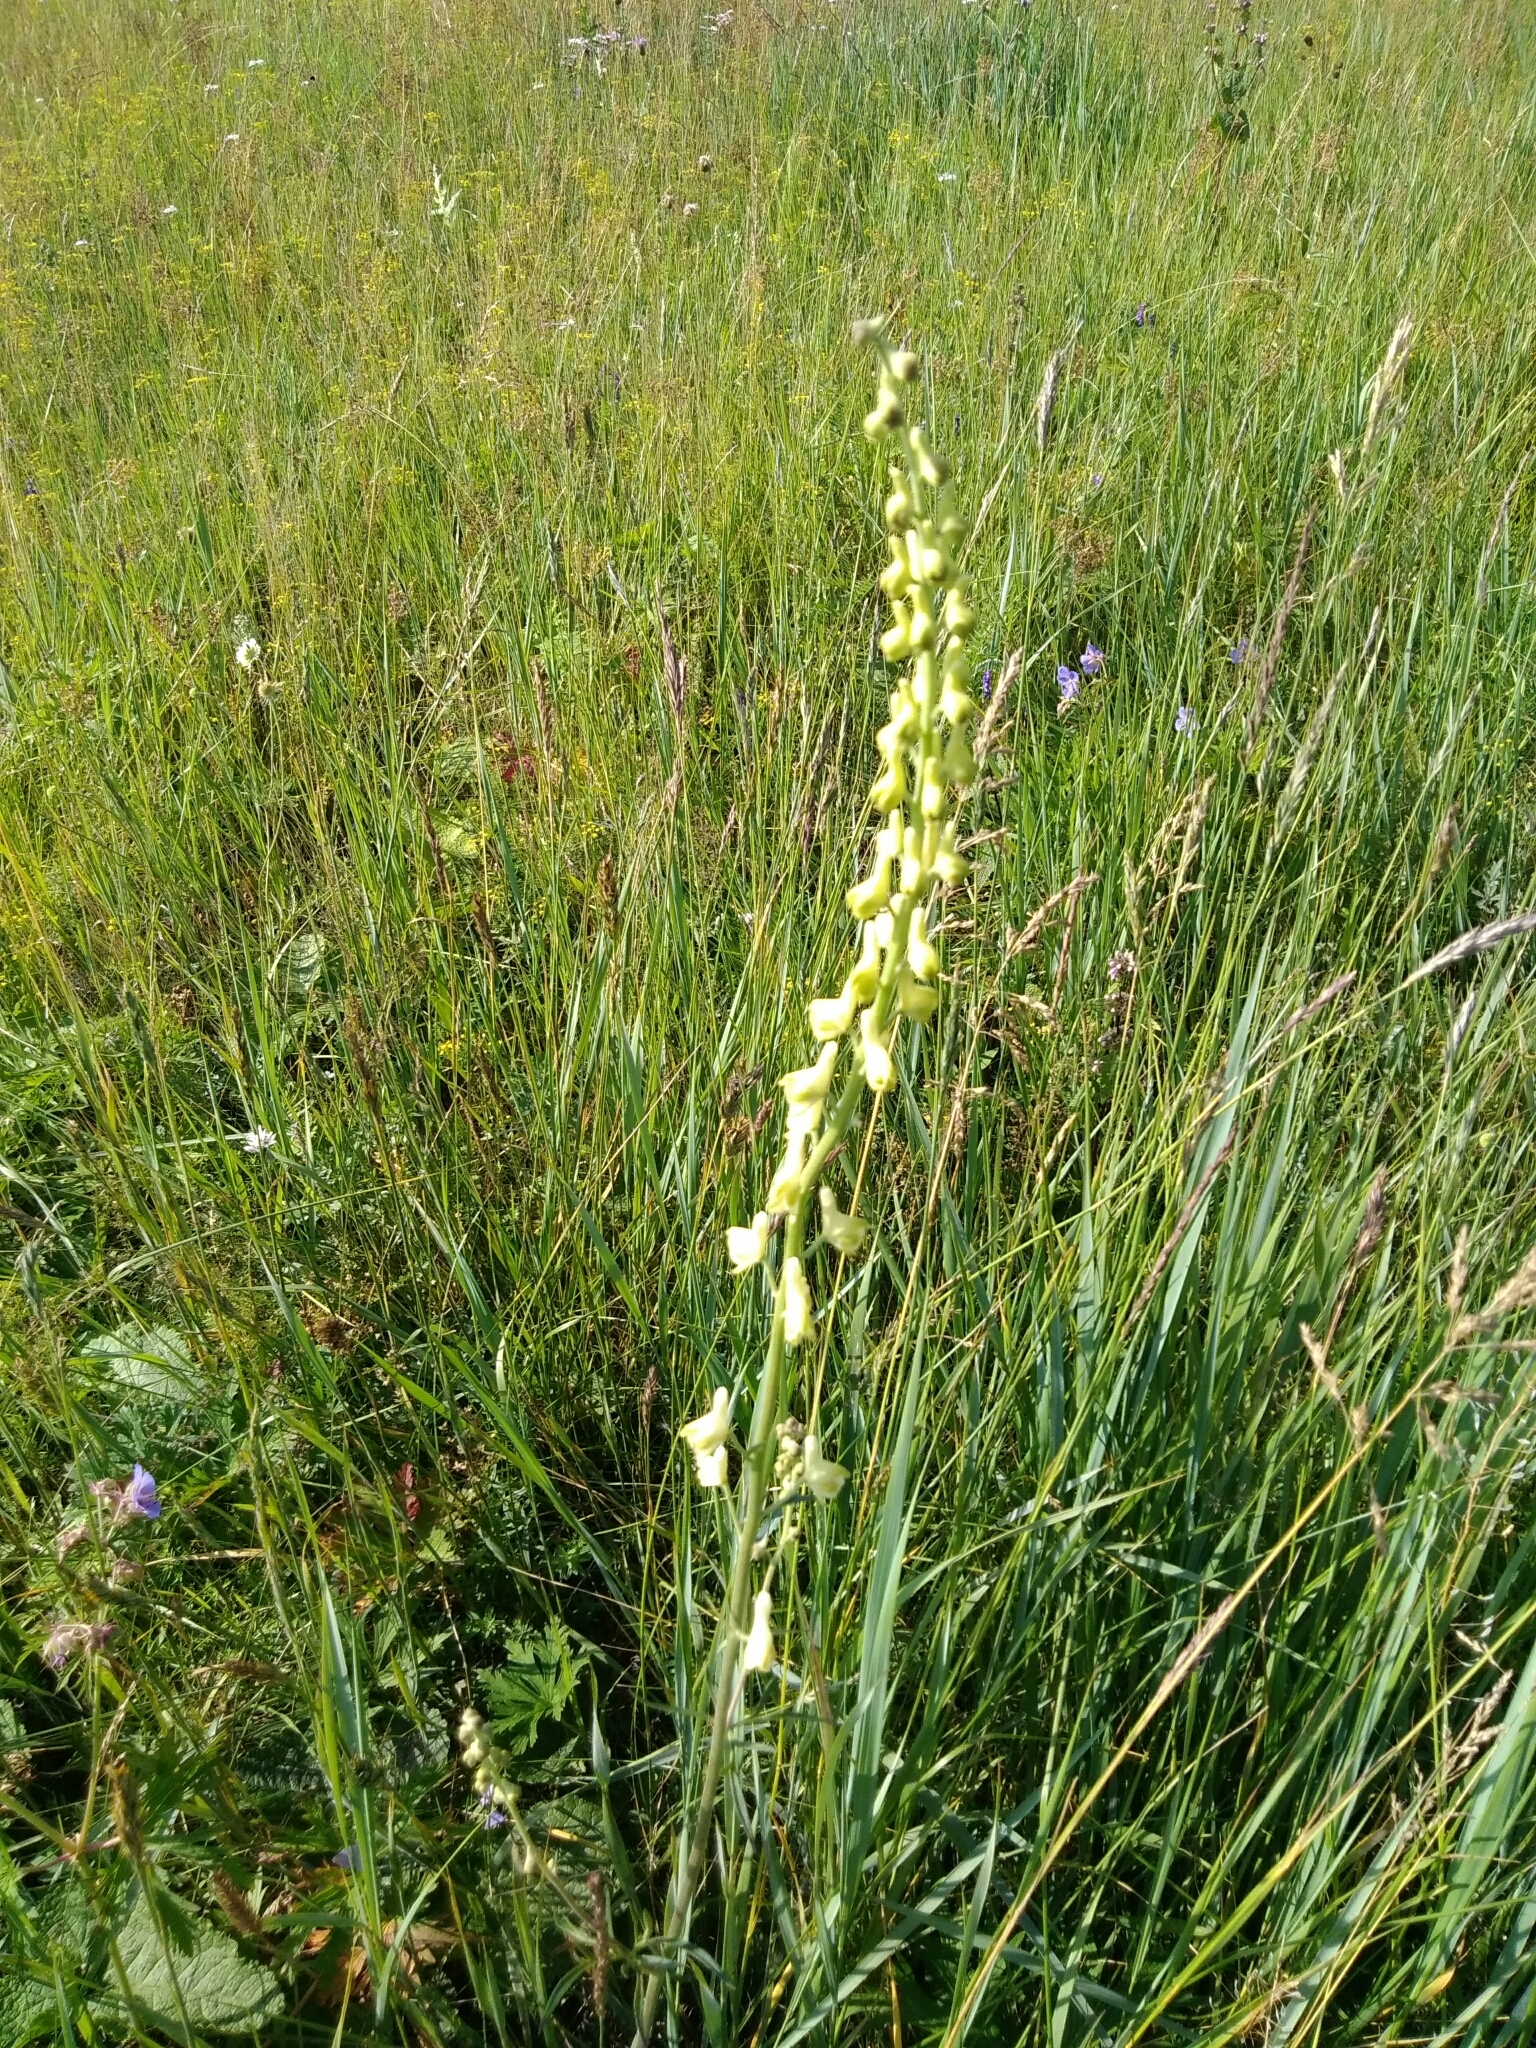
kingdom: Plantae
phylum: Tracheophyta
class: Magnoliopsida
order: Ranunculales
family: Ranunculaceae
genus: Aconitum
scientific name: Aconitum barbatum
